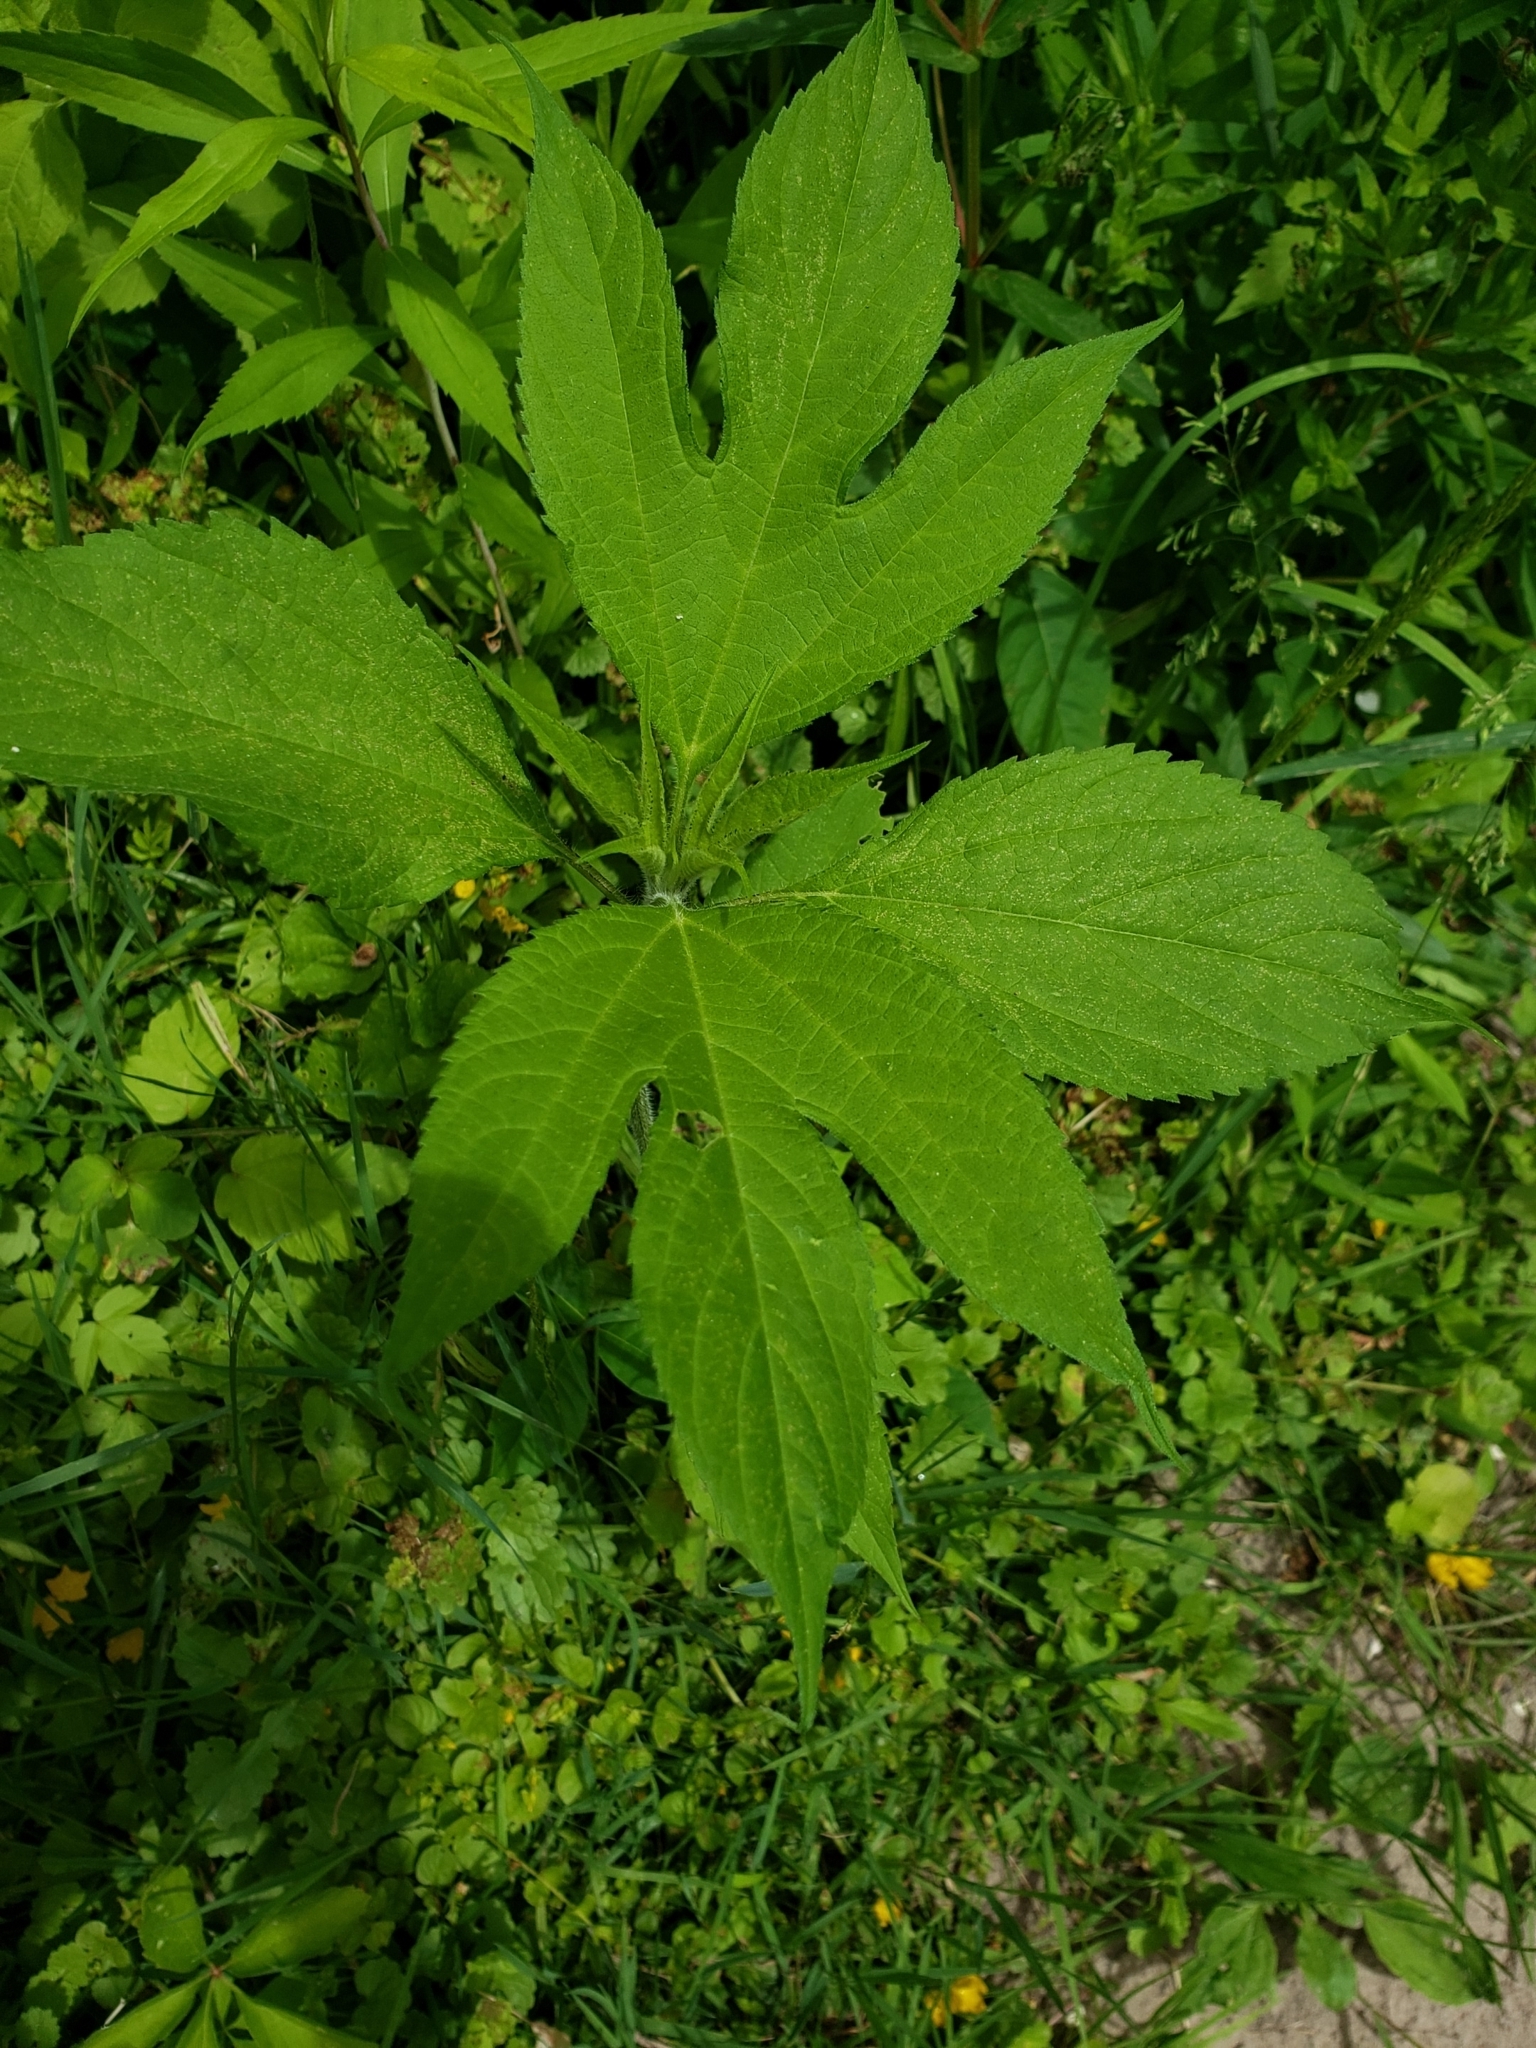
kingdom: Plantae
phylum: Tracheophyta
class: Magnoliopsida
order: Asterales
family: Asteraceae
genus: Ambrosia
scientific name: Ambrosia trifida
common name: Giant ragweed
